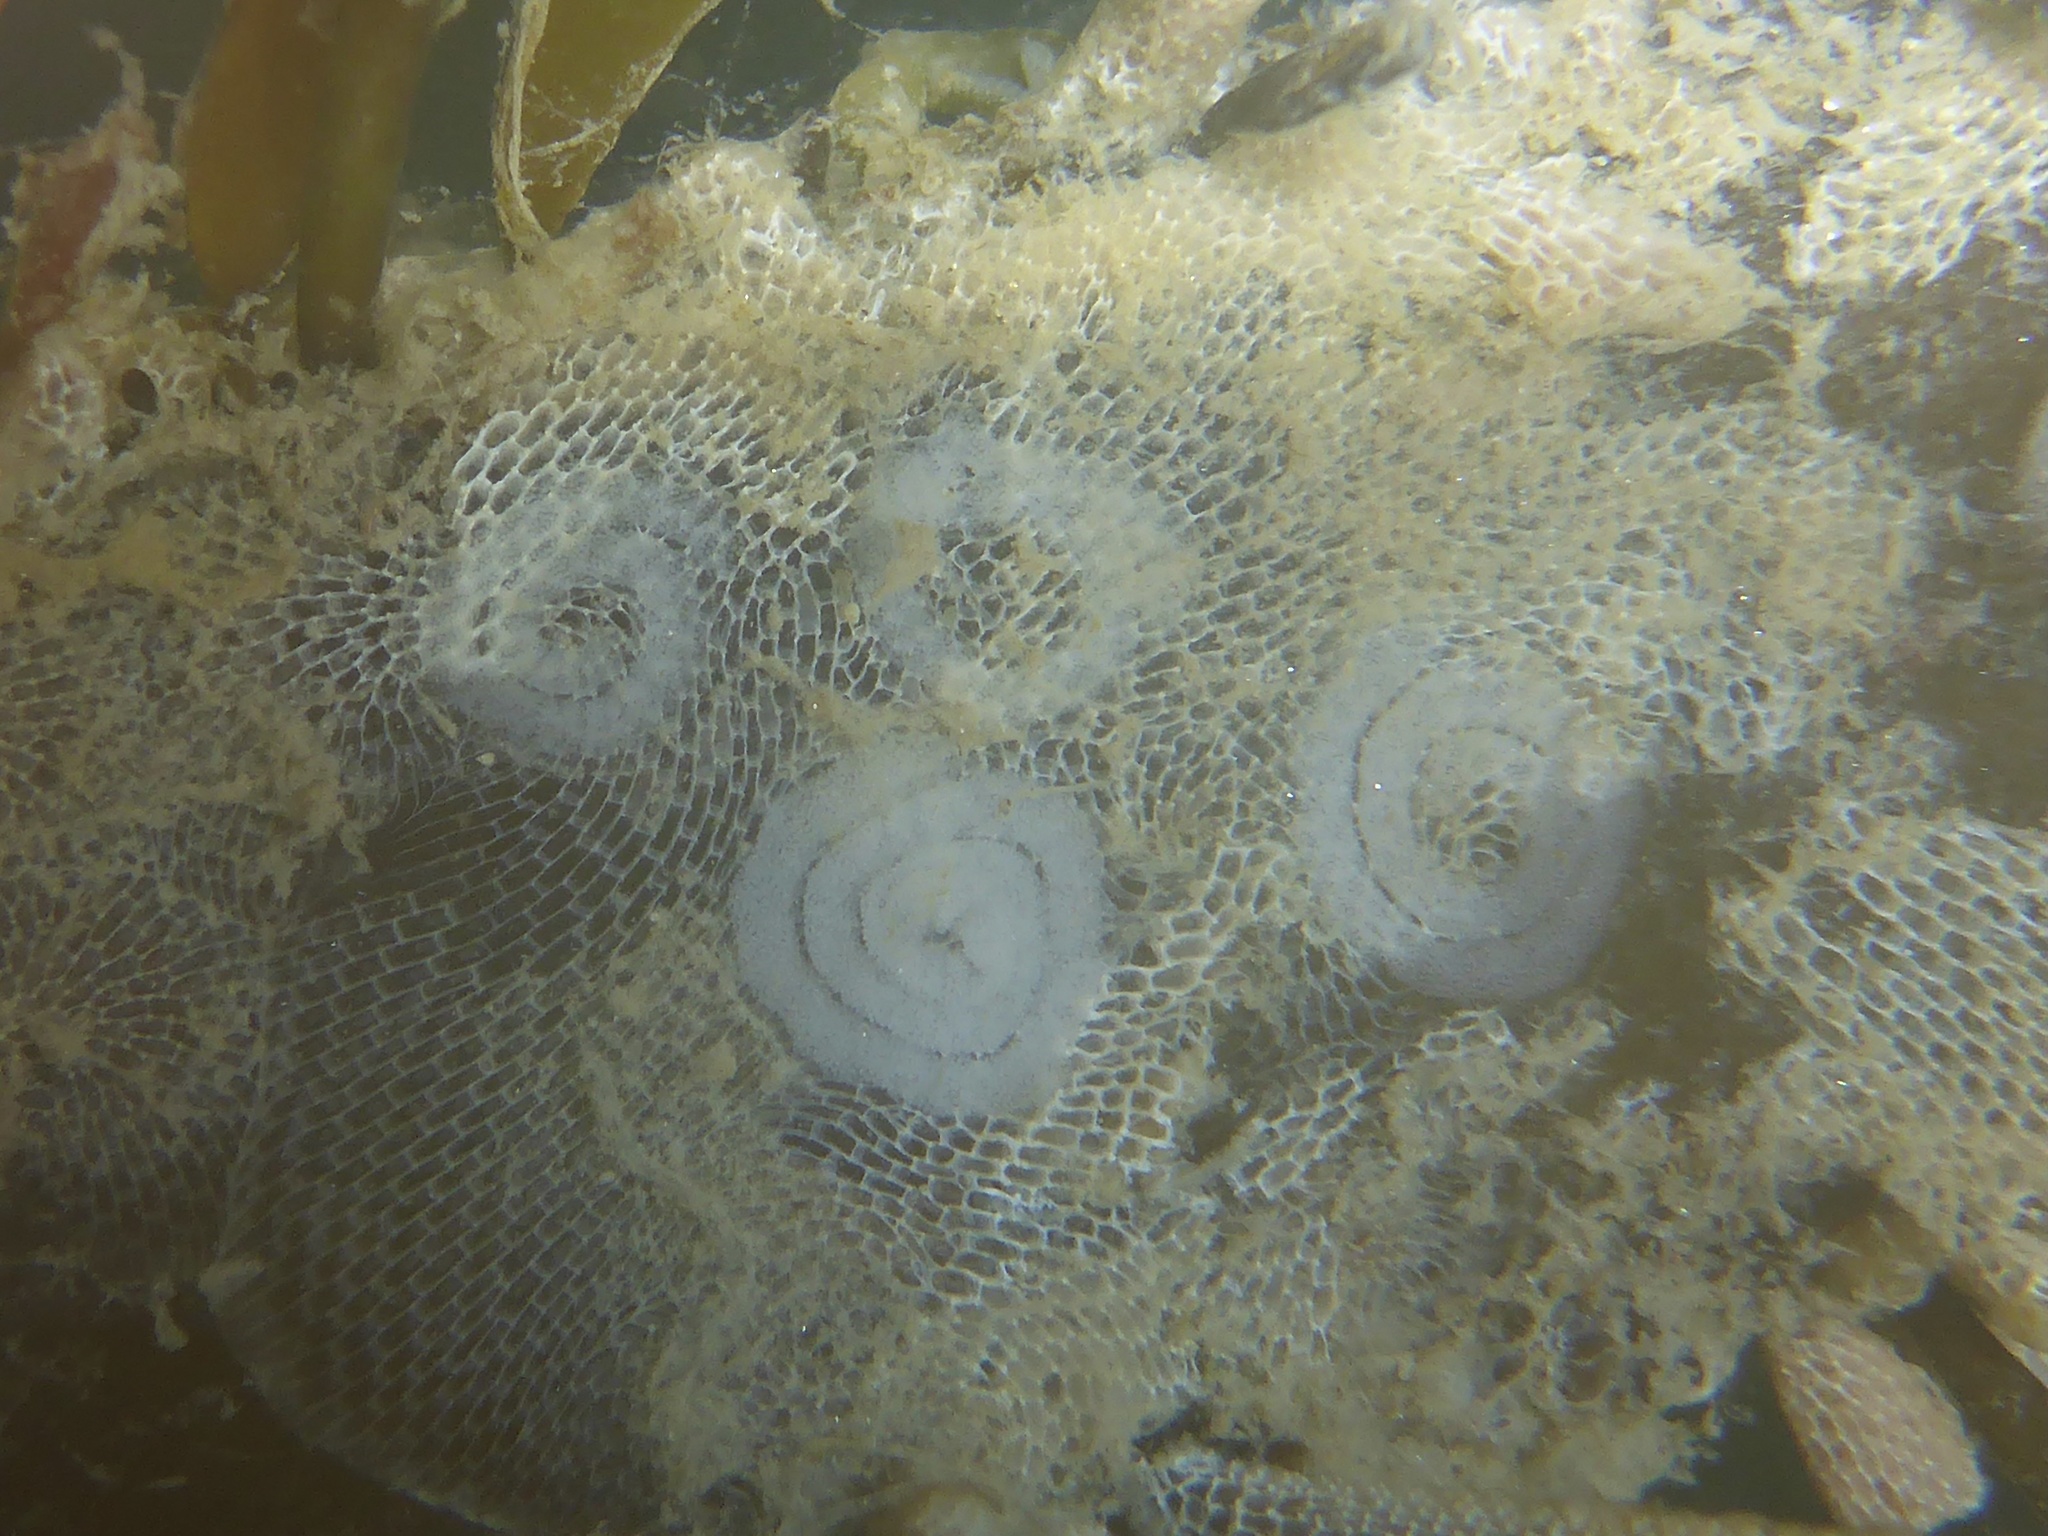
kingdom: Animalia
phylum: Mollusca
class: Gastropoda
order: Nudibranchia
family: Corambidae
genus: Corambe
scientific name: Corambe pacifica
